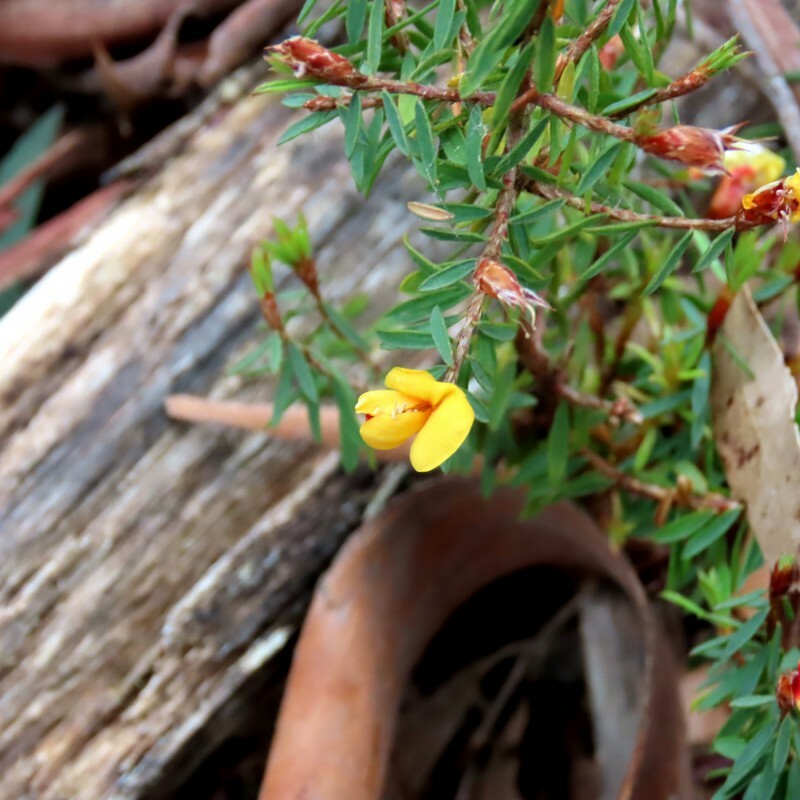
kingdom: Plantae
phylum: Tracheophyta
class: Magnoliopsida
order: Fabales
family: Fabaceae
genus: Pultenaea
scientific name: Pultenaea reflexifolia
